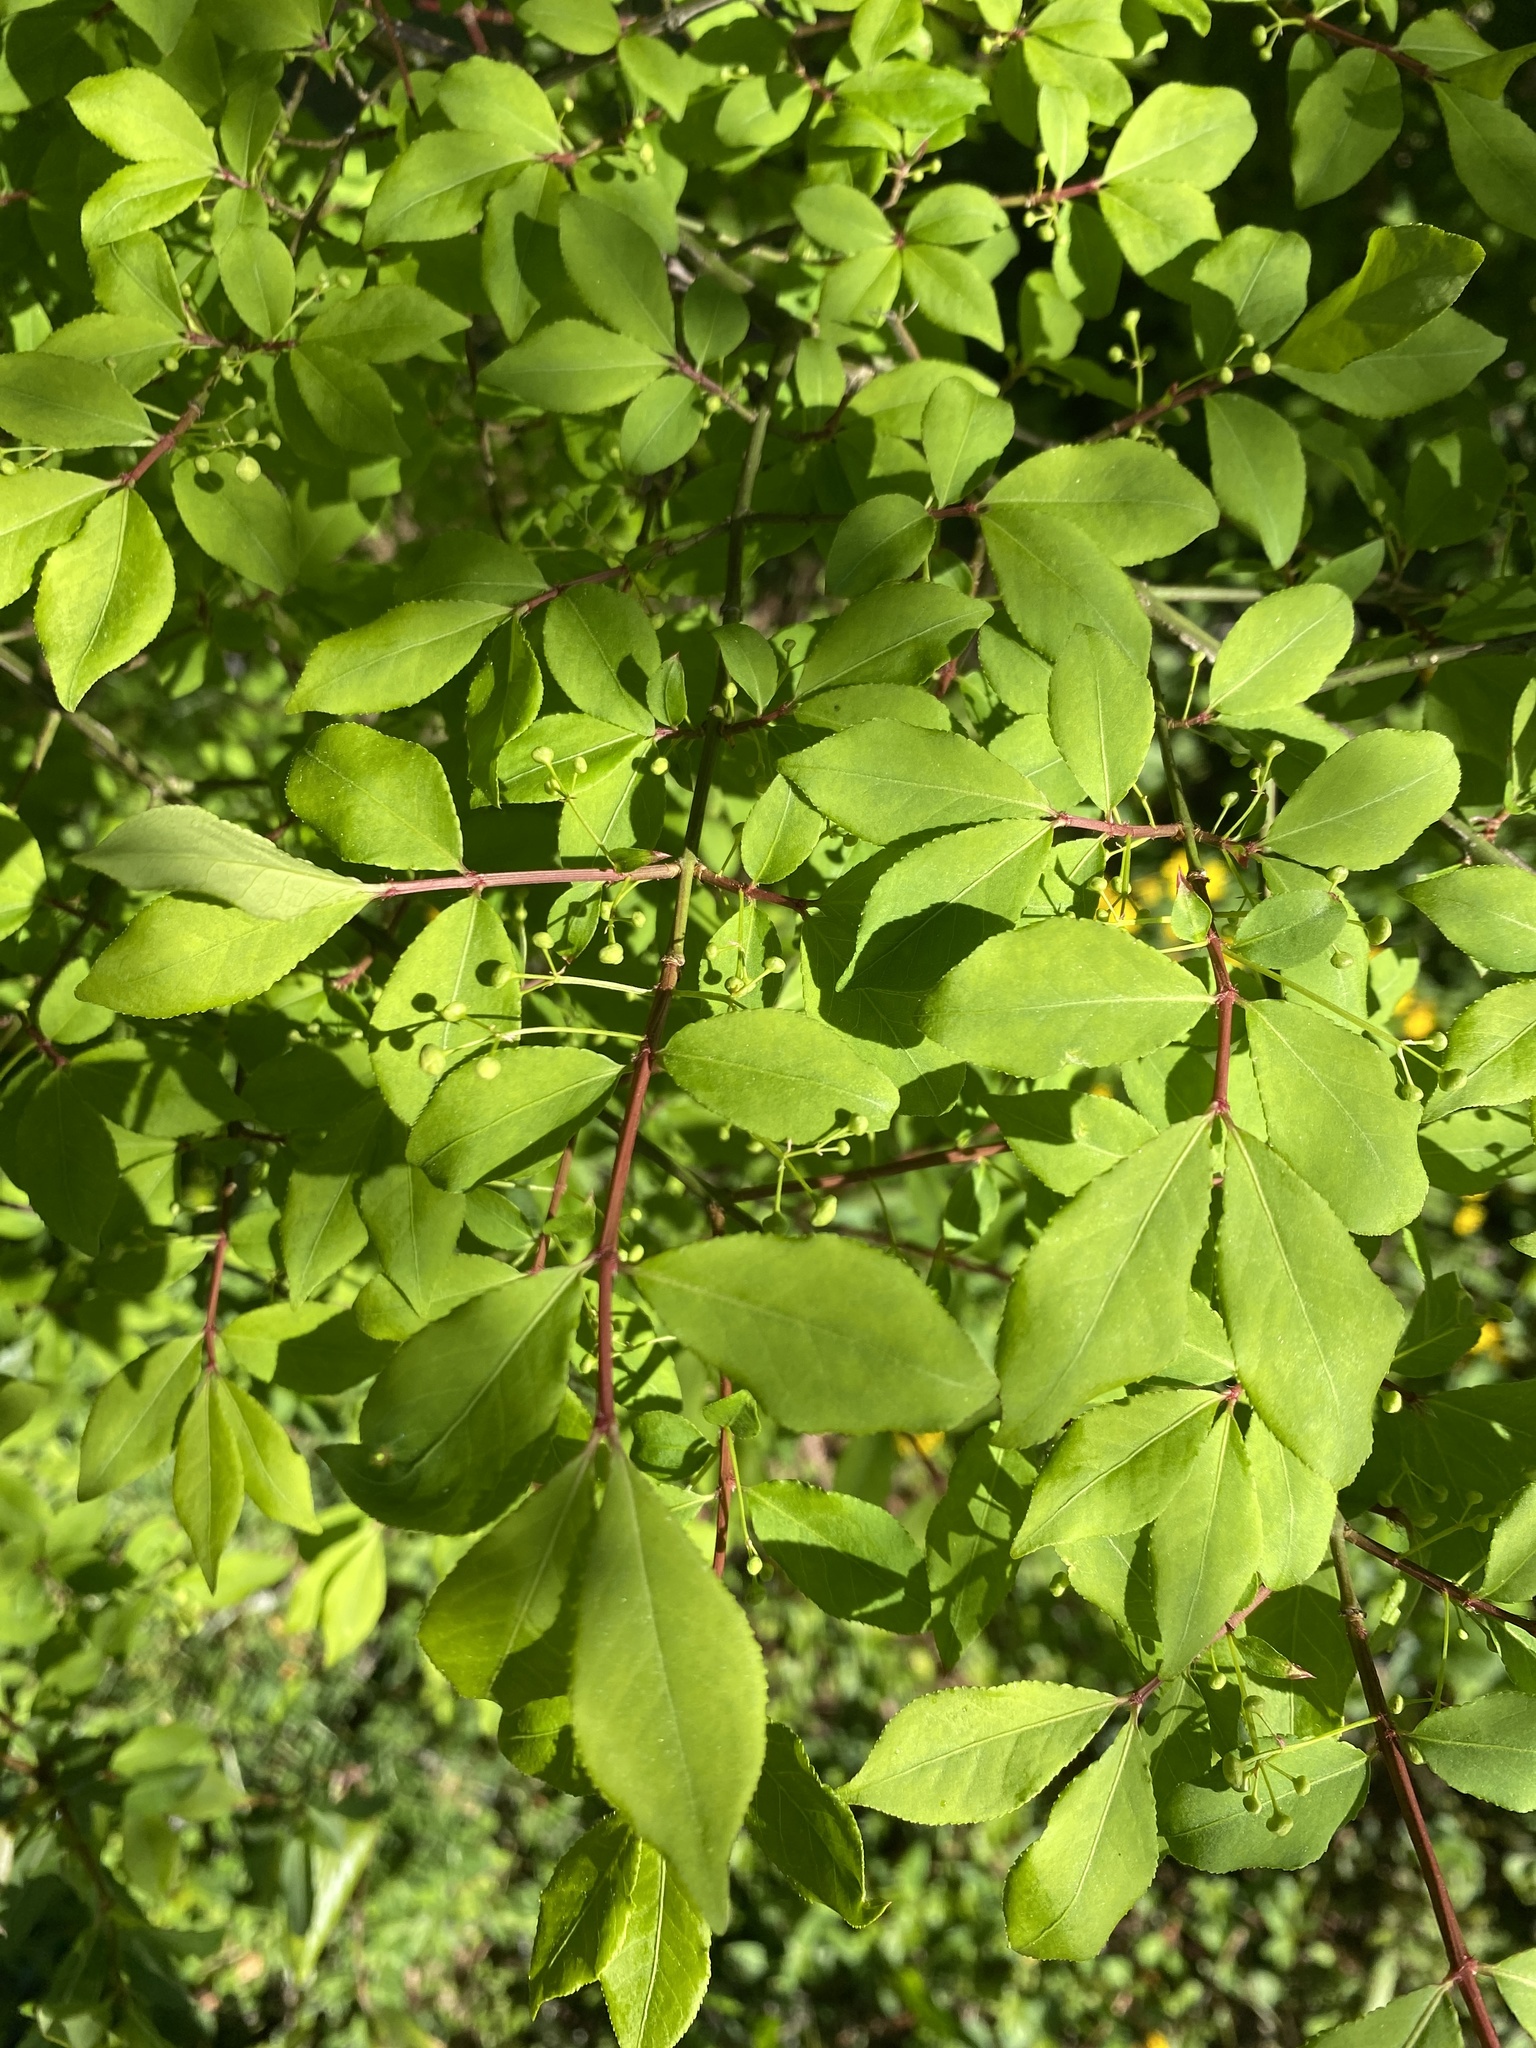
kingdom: Plantae
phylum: Tracheophyta
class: Magnoliopsida
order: Celastrales
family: Celastraceae
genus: Euonymus
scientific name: Euonymus alatus
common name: Winged euonymus
